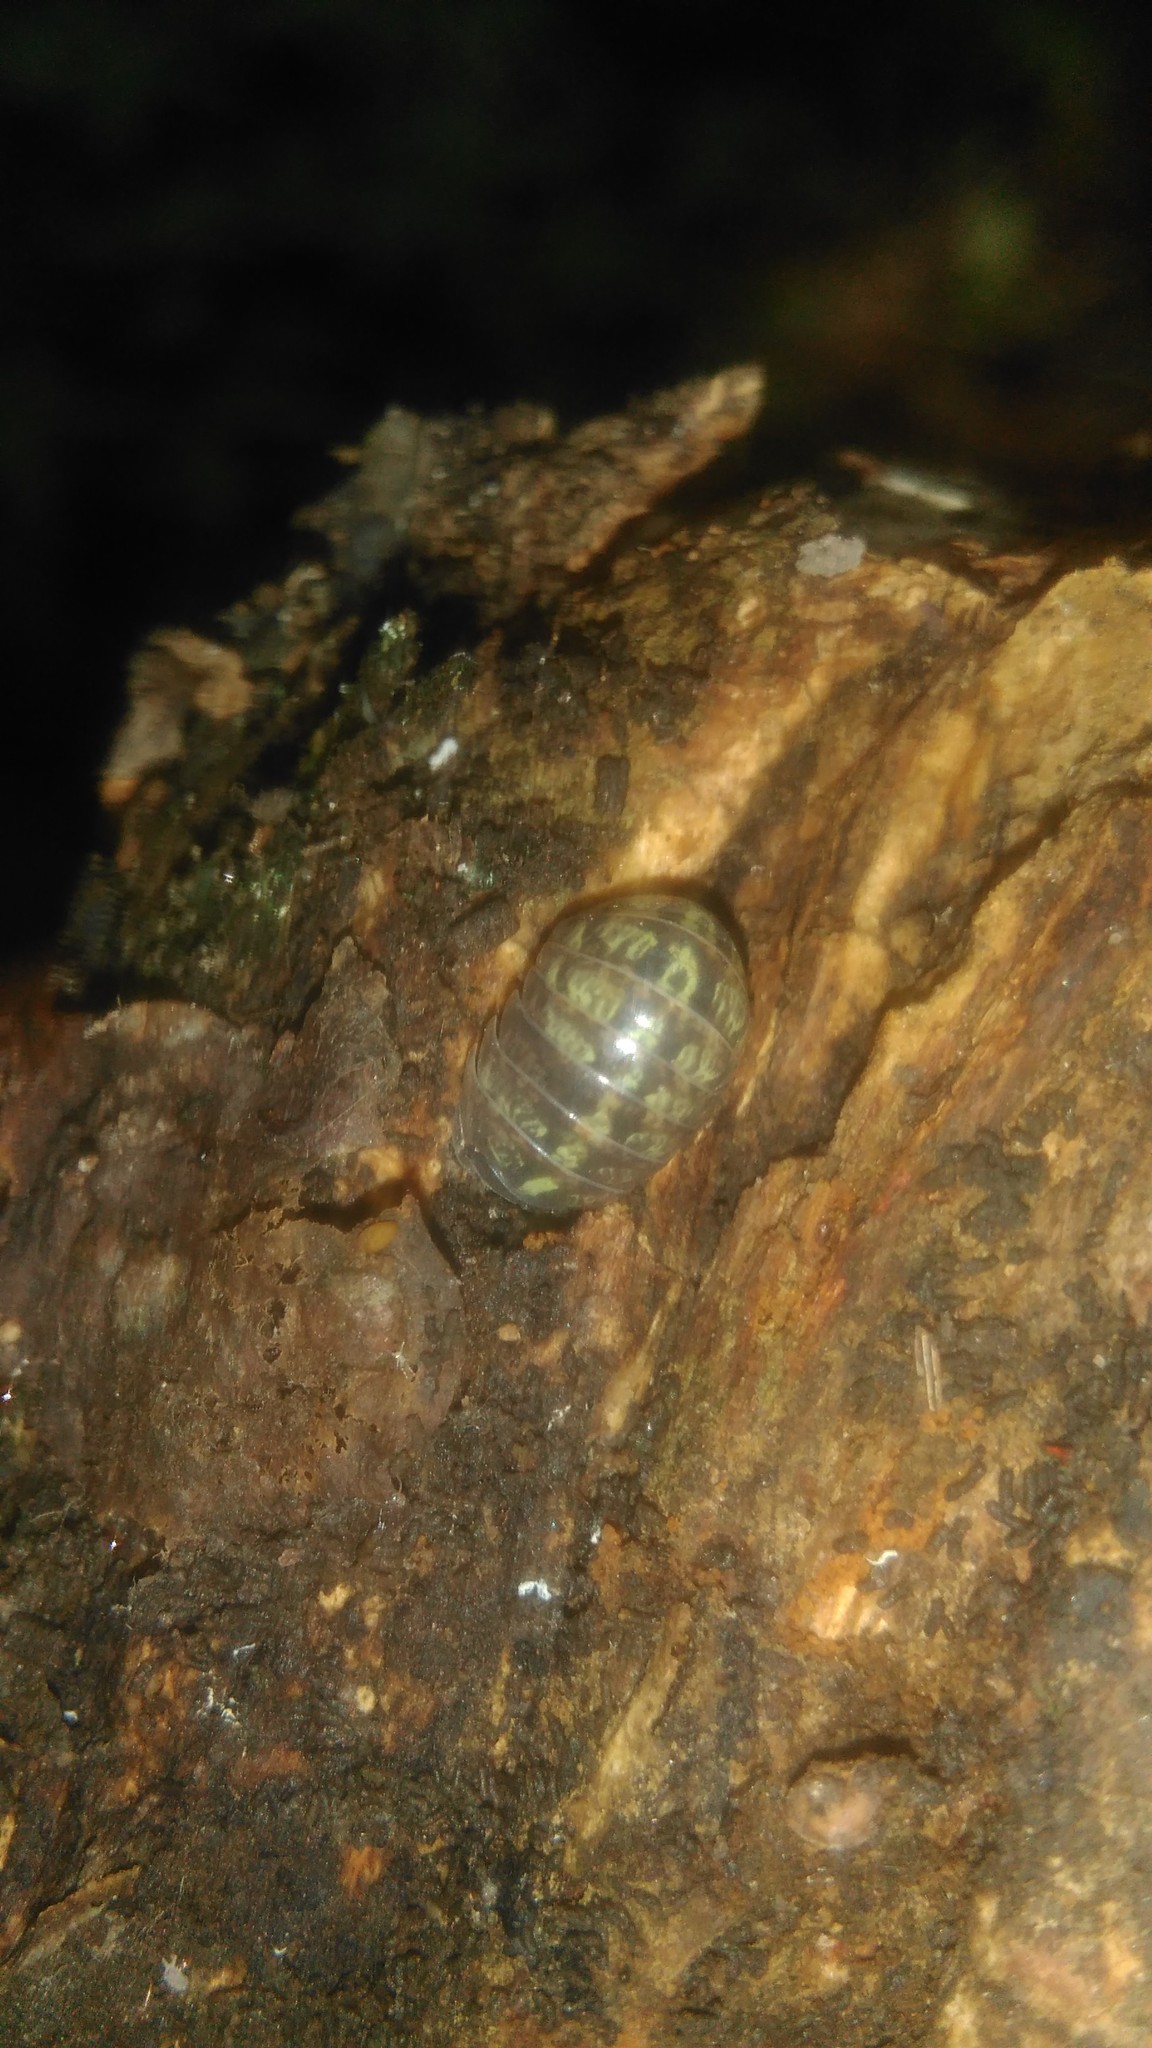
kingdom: Animalia
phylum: Arthropoda
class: Malacostraca
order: Isopoda
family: Armadillidiidae
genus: Armadillidium
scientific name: Armadillidium vulgare
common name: Common pill woodlouse
